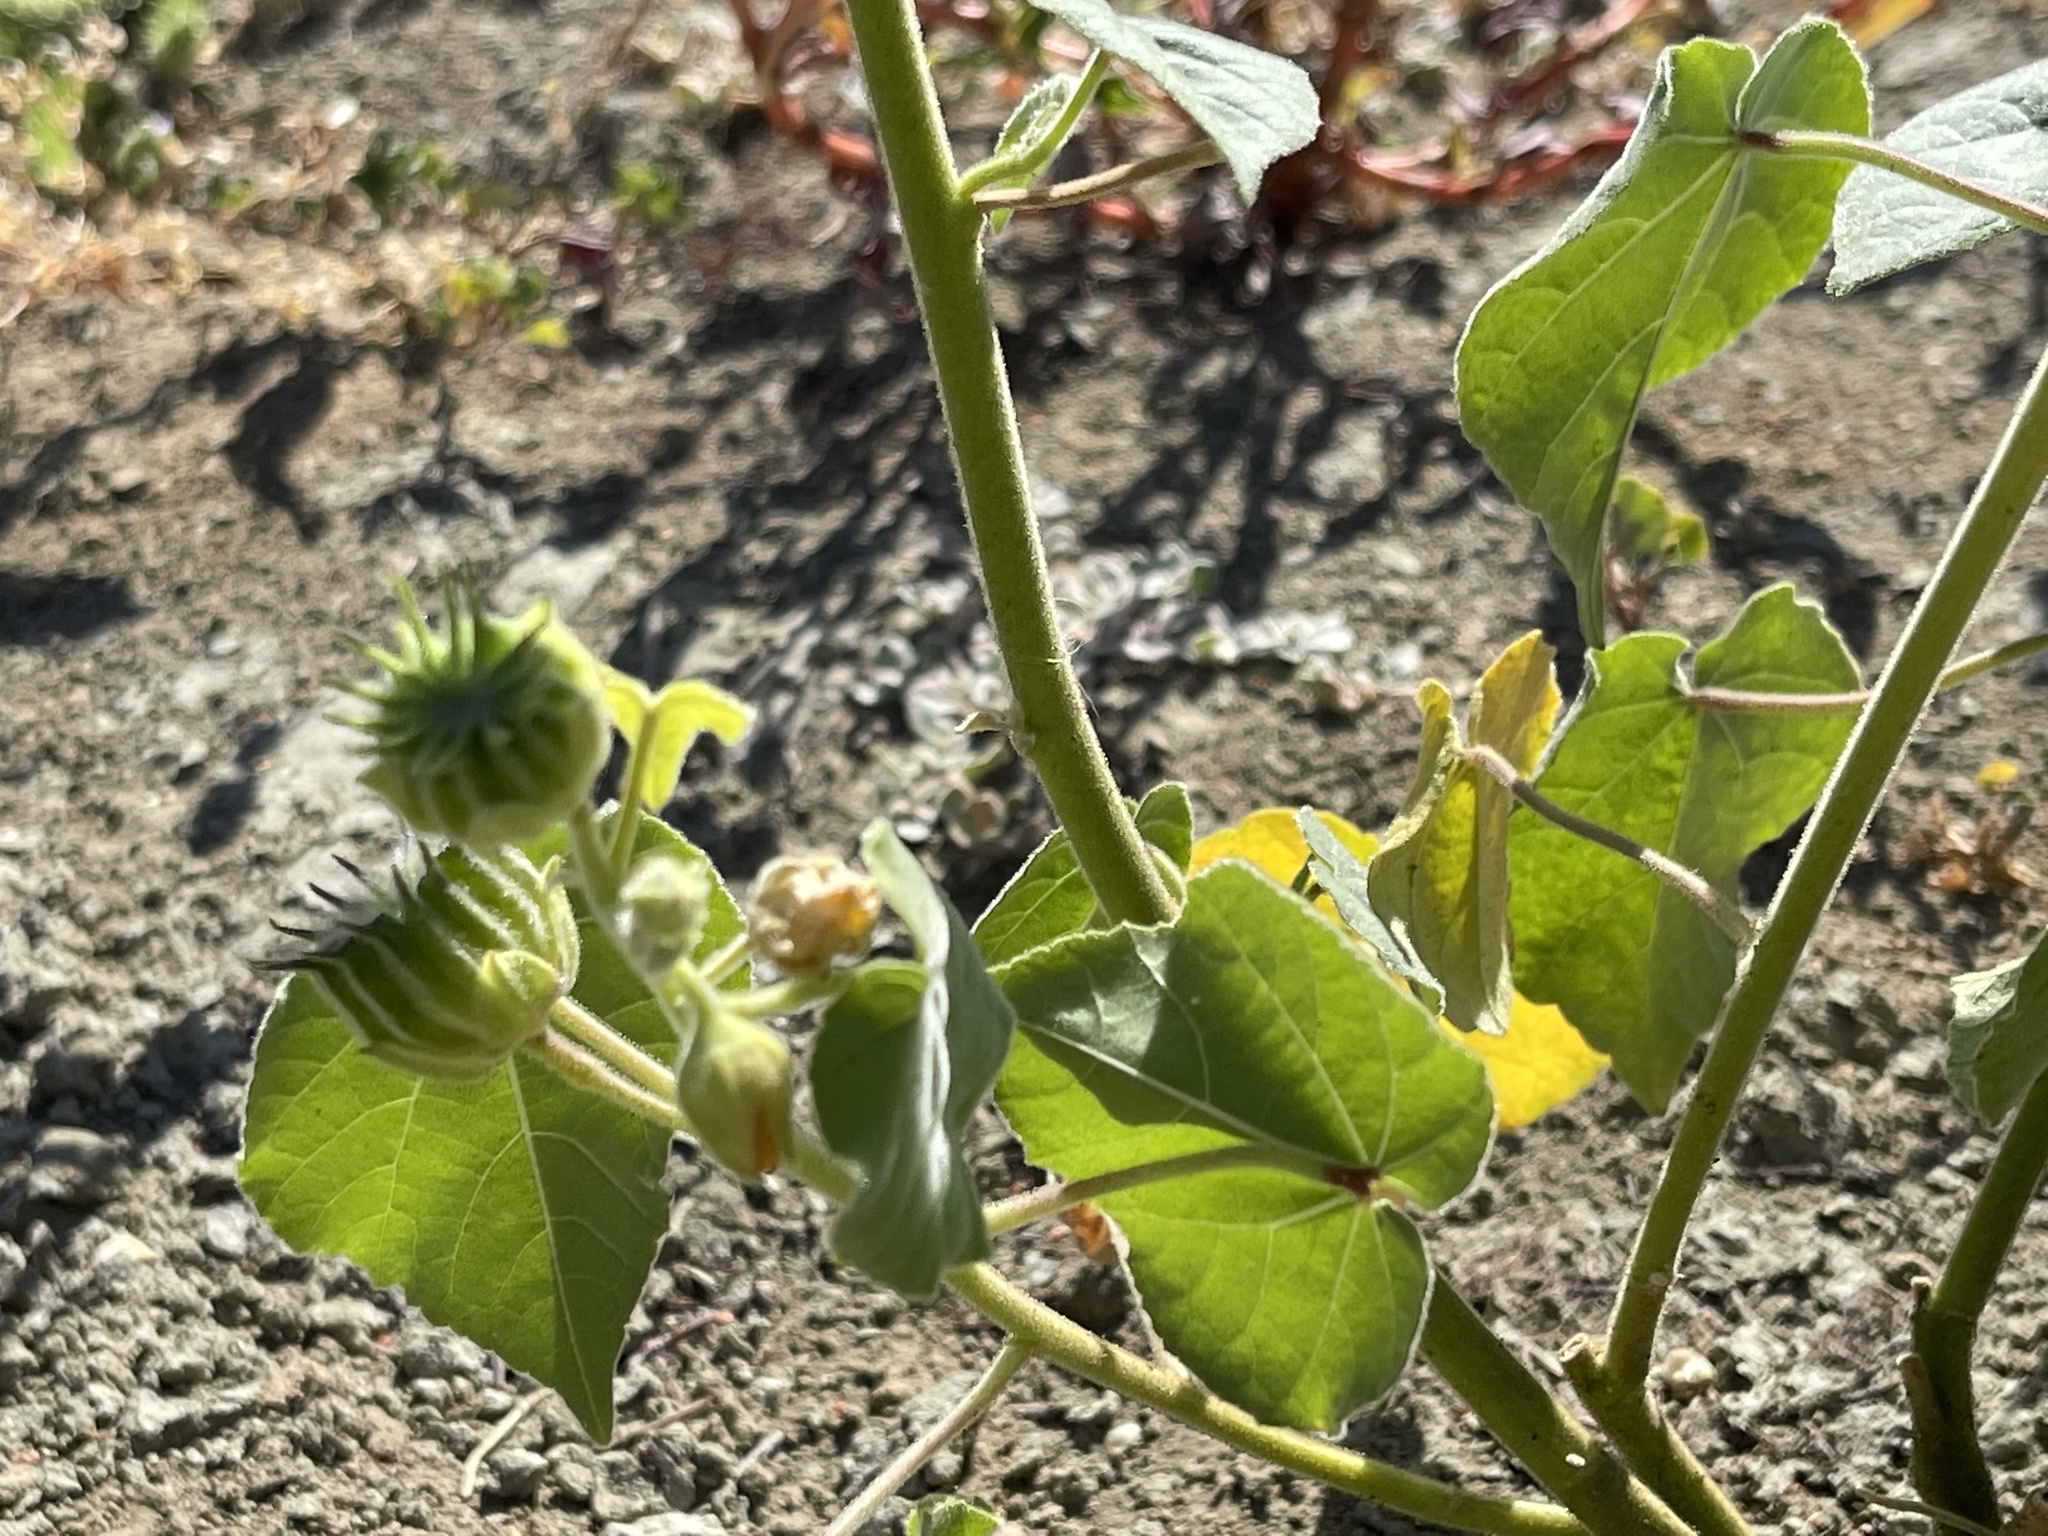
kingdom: Plantae
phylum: Tracheophyta
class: Magnoliopsida
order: Malvales
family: Malvaceae
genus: Abutilon
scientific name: Abutilon theophrasti
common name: Velvetleaf
